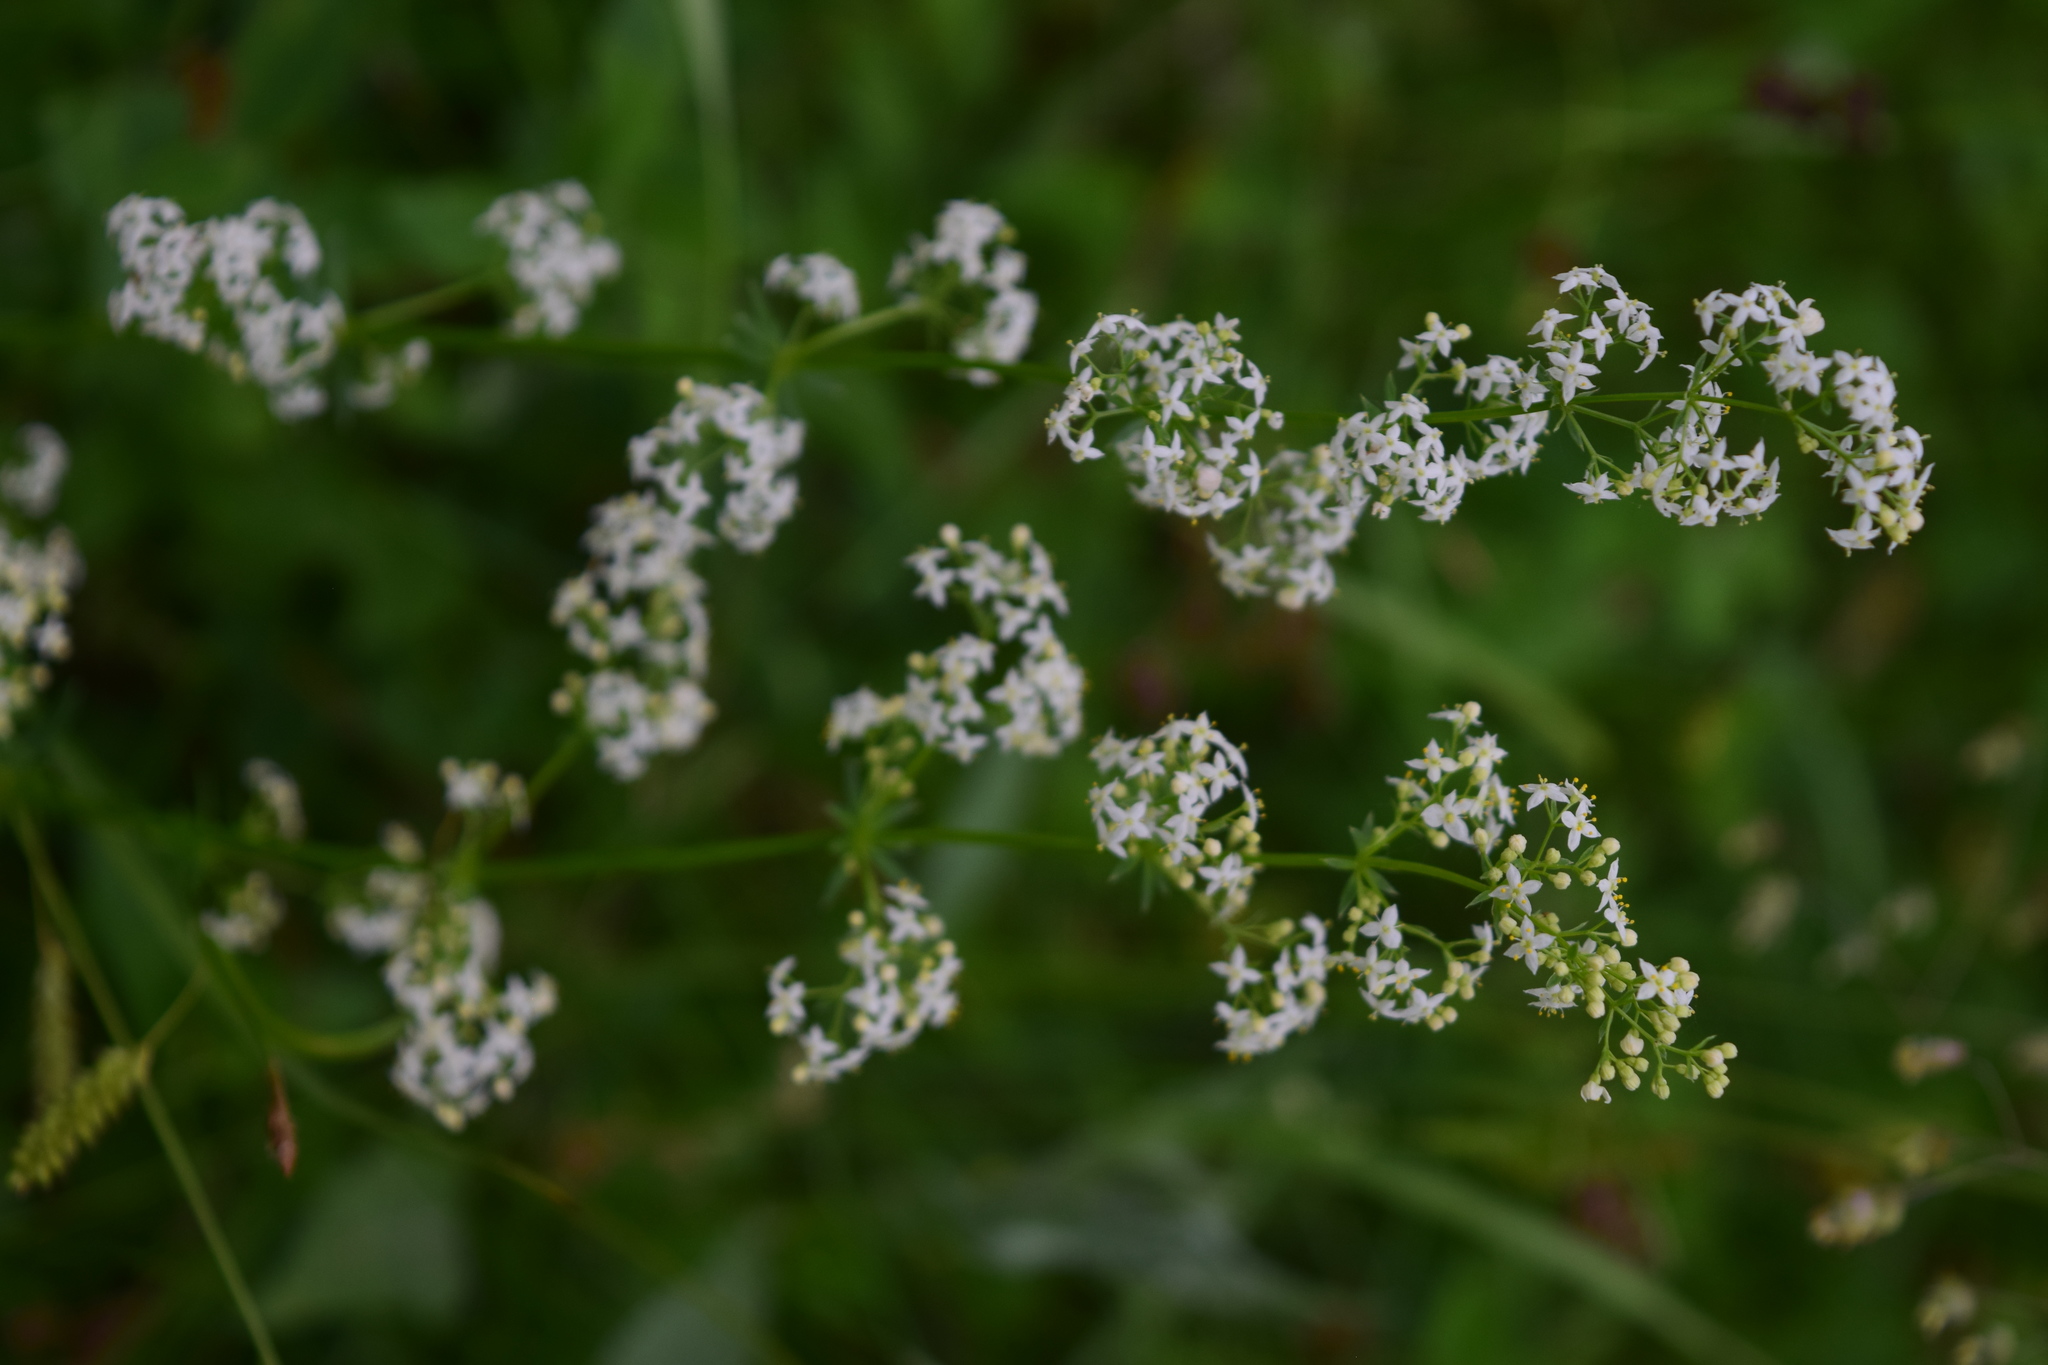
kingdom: Plantae
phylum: Tracheophyta
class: Magnoliopsida
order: Gentianales
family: Rubiaceae
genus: Galium
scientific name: Galium mollugo
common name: Hedge bedstraw
